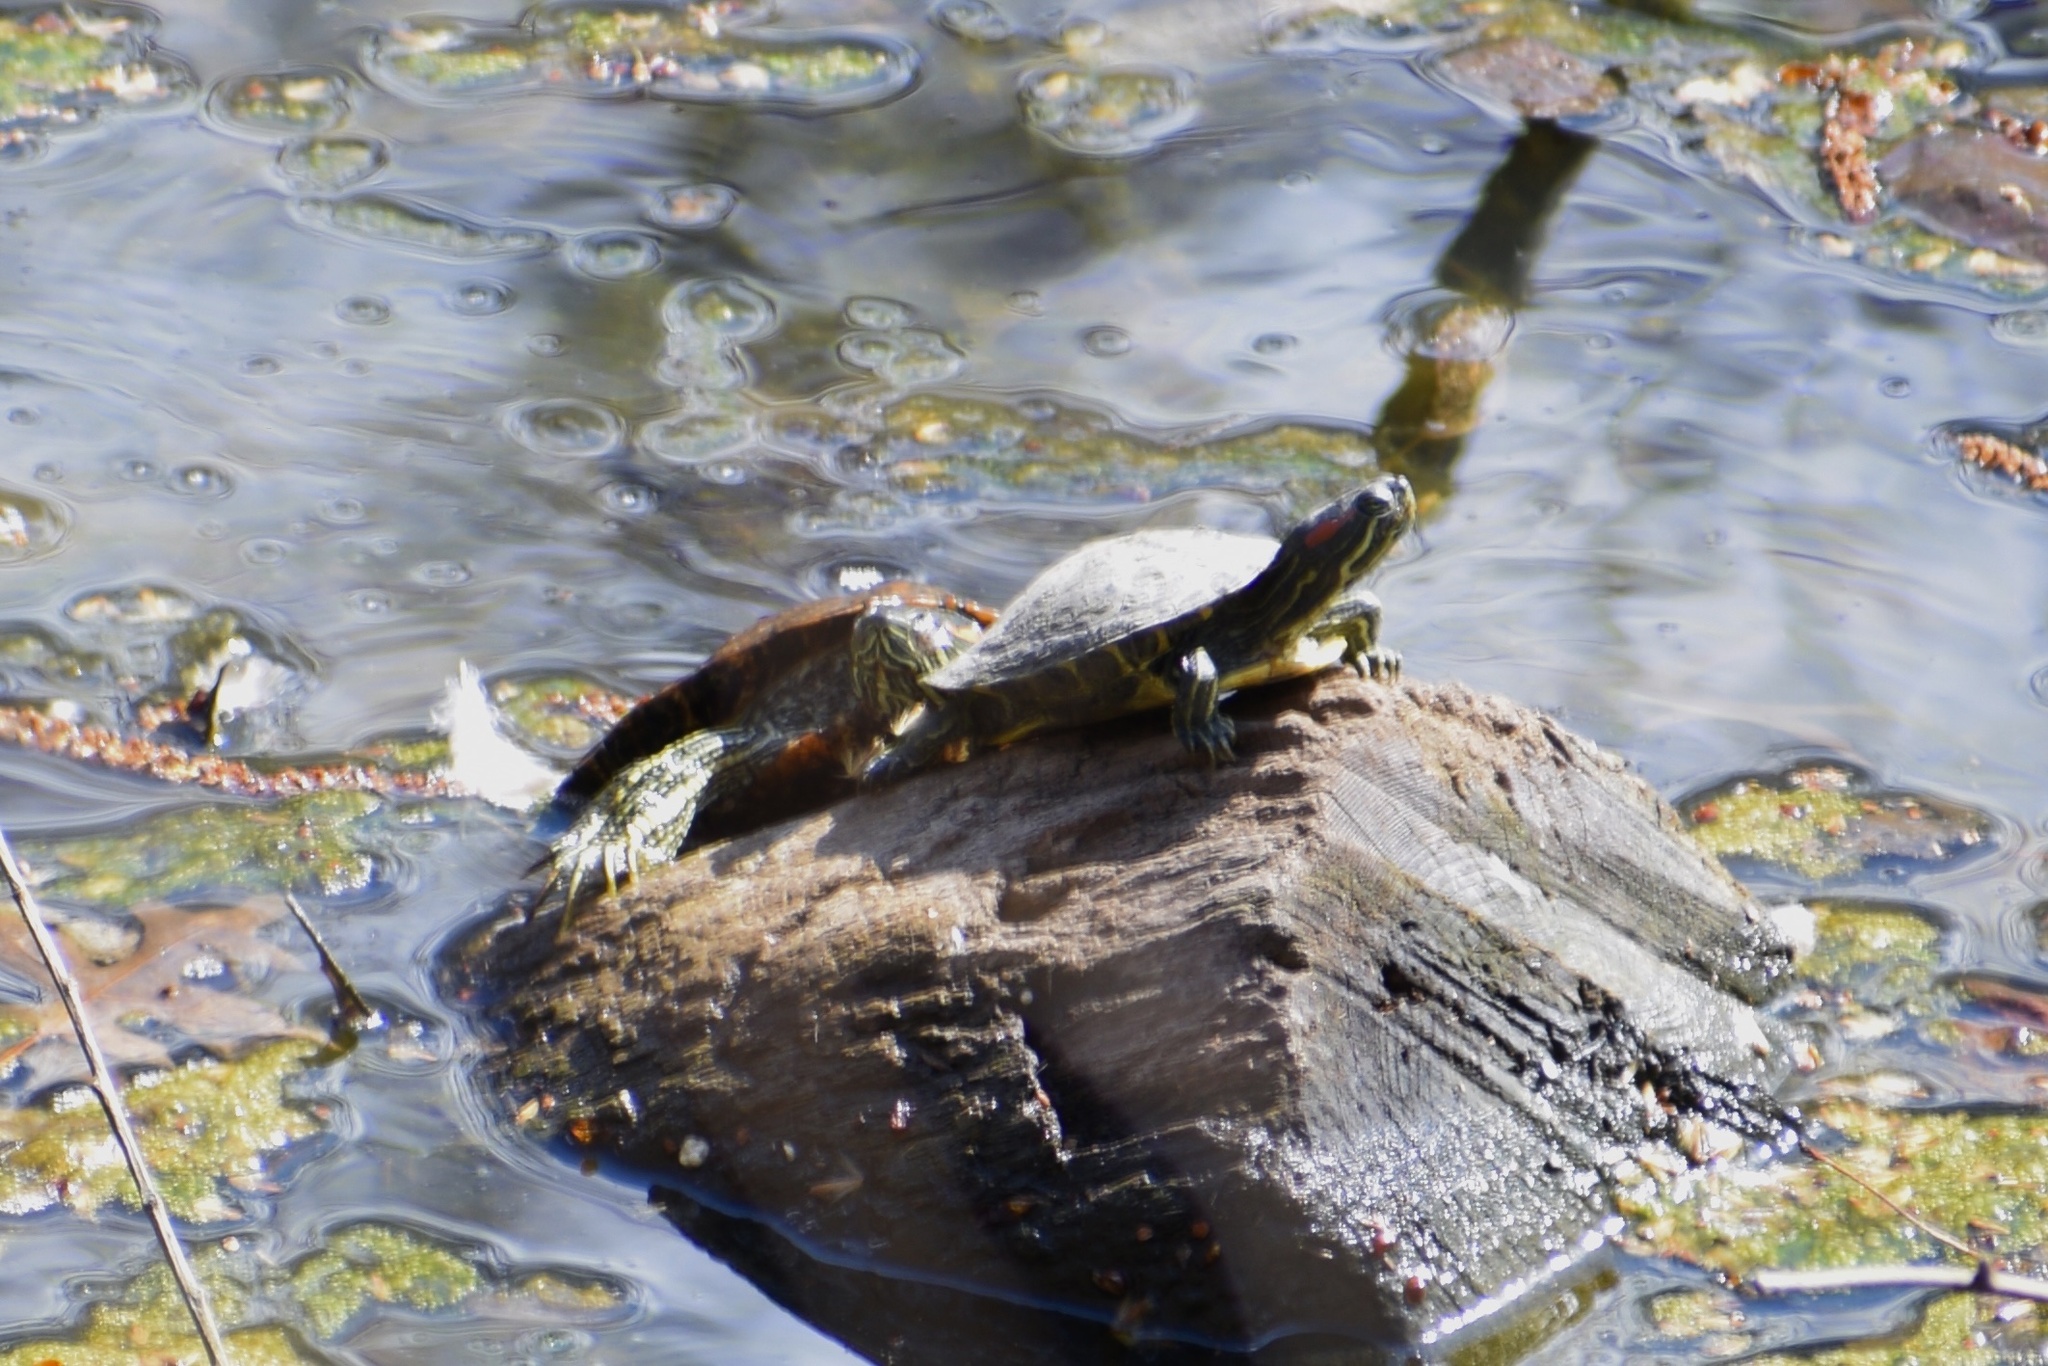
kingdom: Animalia
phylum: Chordata
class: Testudines
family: Emydidae
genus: Trachemys
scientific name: Trachemys scripta
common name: Slider
